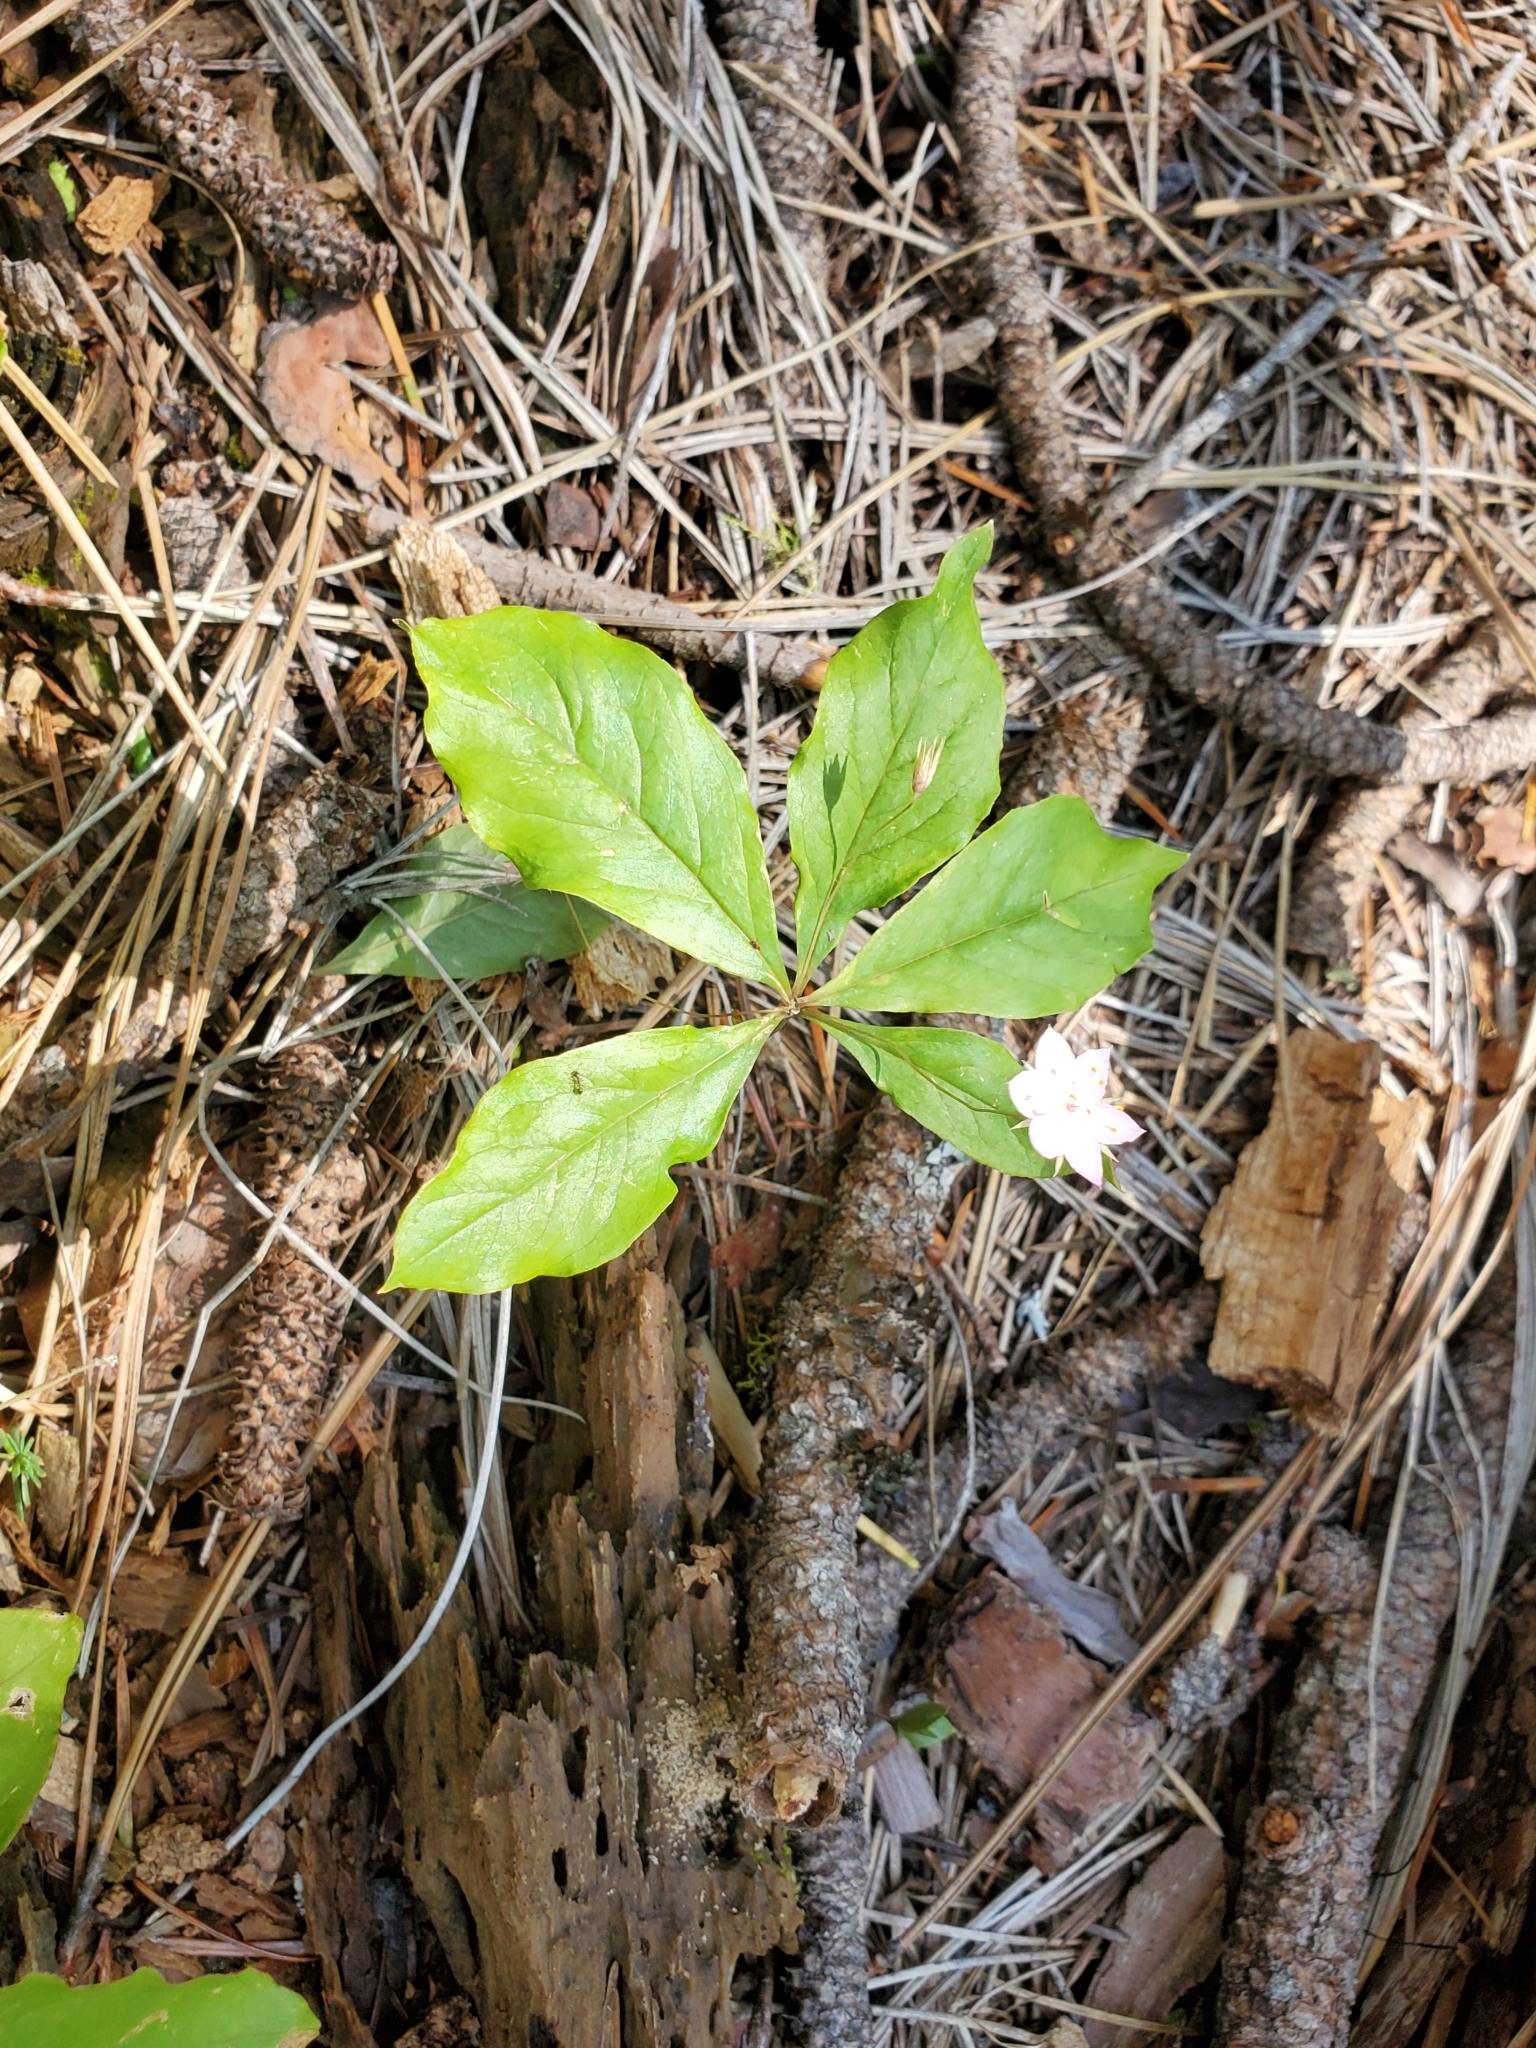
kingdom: Plantae
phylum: Tracheophyta
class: Magnoliopsida
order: Ericales
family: Primulaceae
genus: Lysimachia
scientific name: Lysimachia latifolia
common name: Pacific starflower
